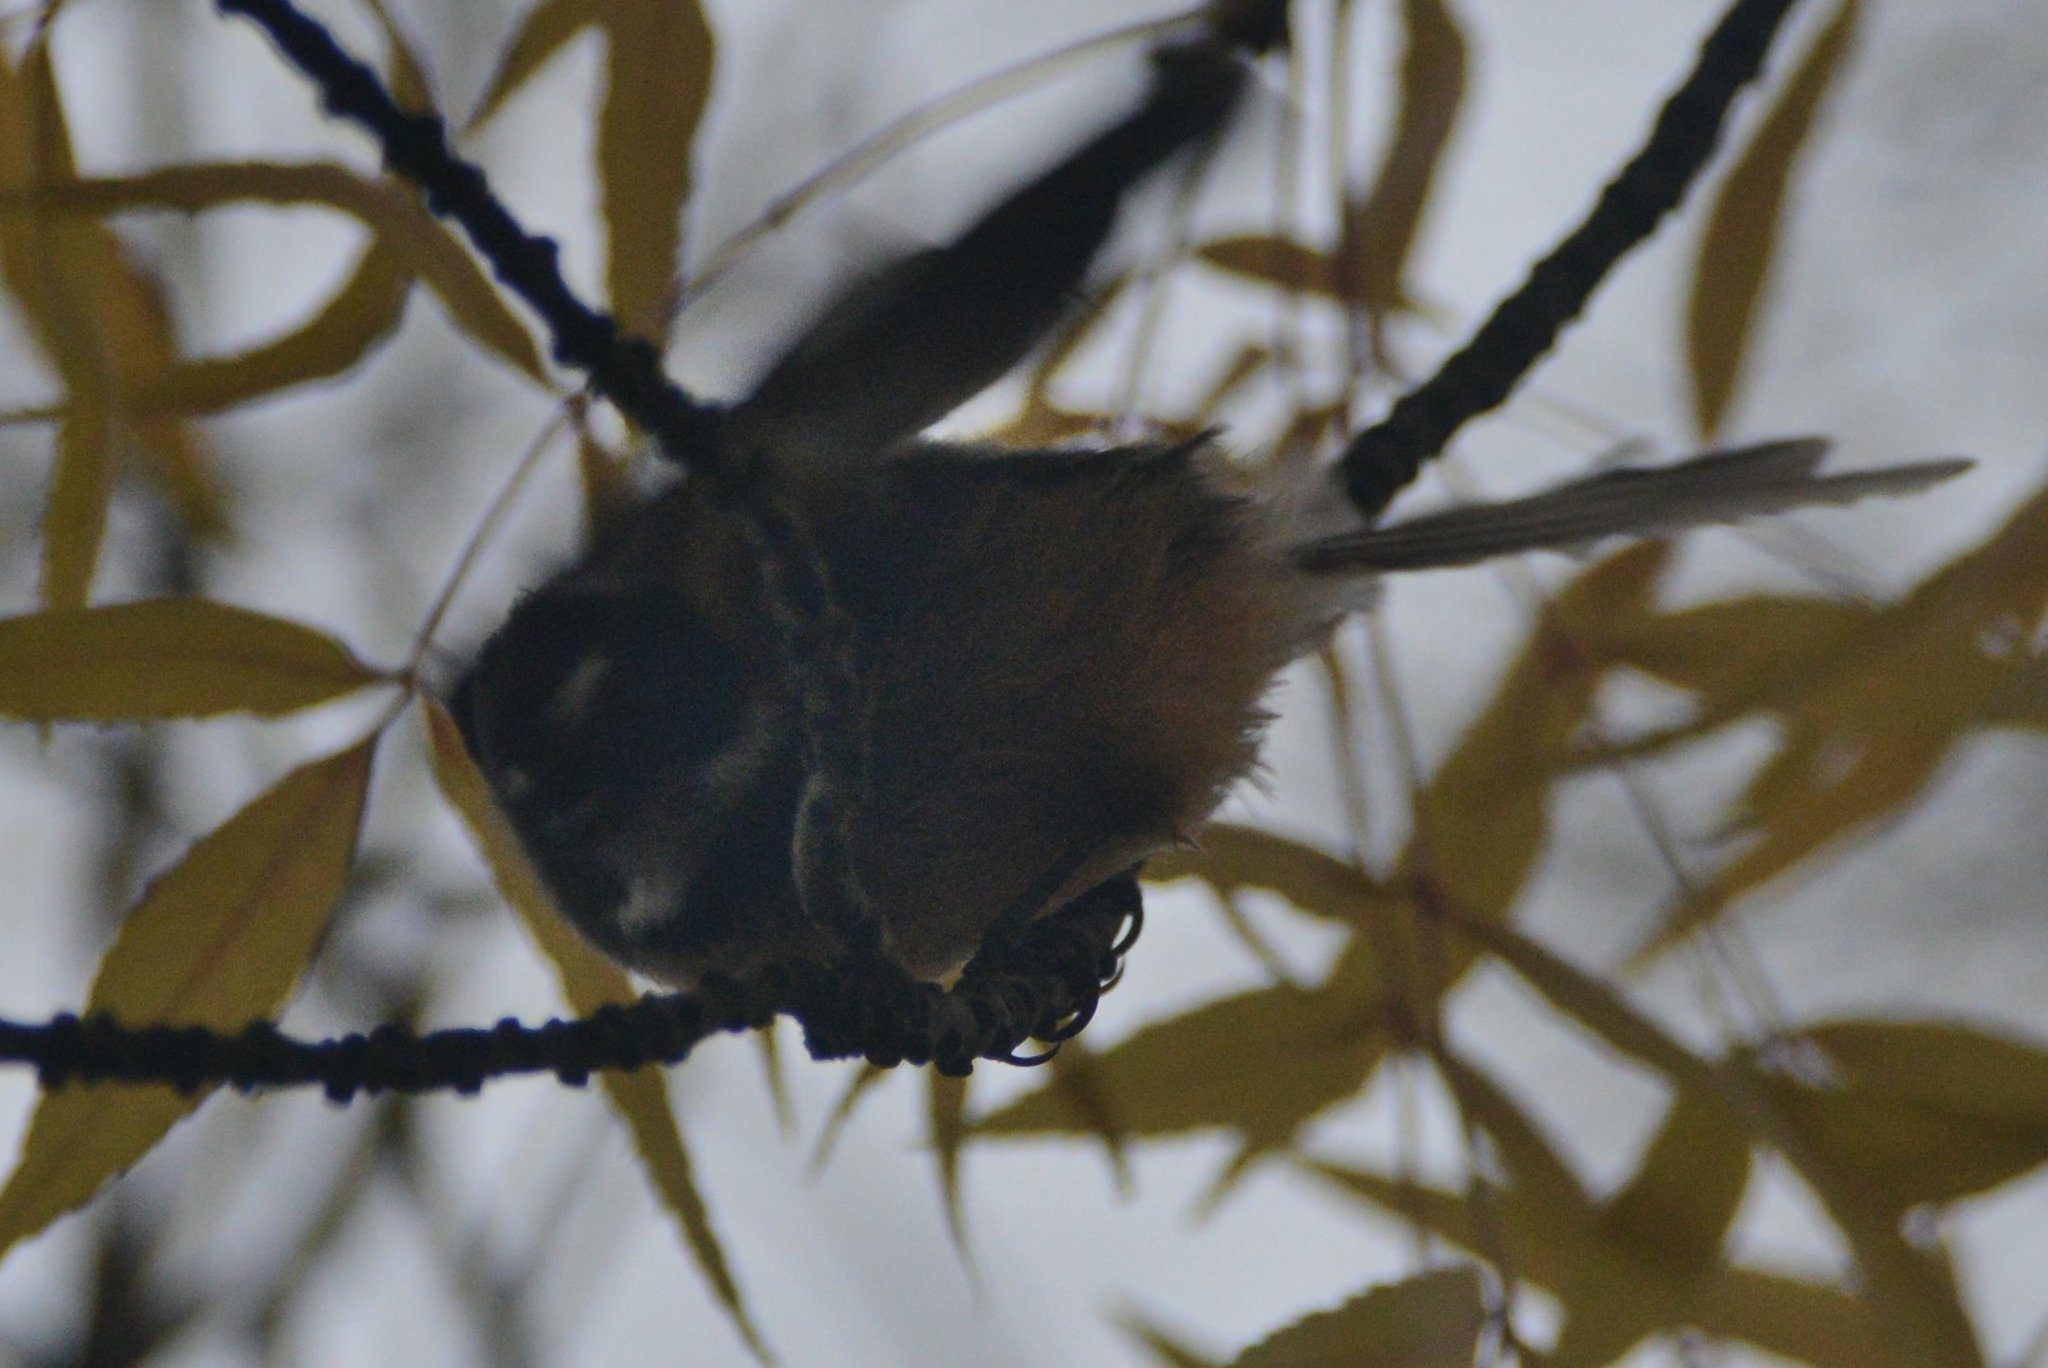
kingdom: Animalia
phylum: Chordata
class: Aves
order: Passeriformes
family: Rhipiduridae
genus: Rhipidura
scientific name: Rhipidura fuliginosa
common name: New zealand fantail
